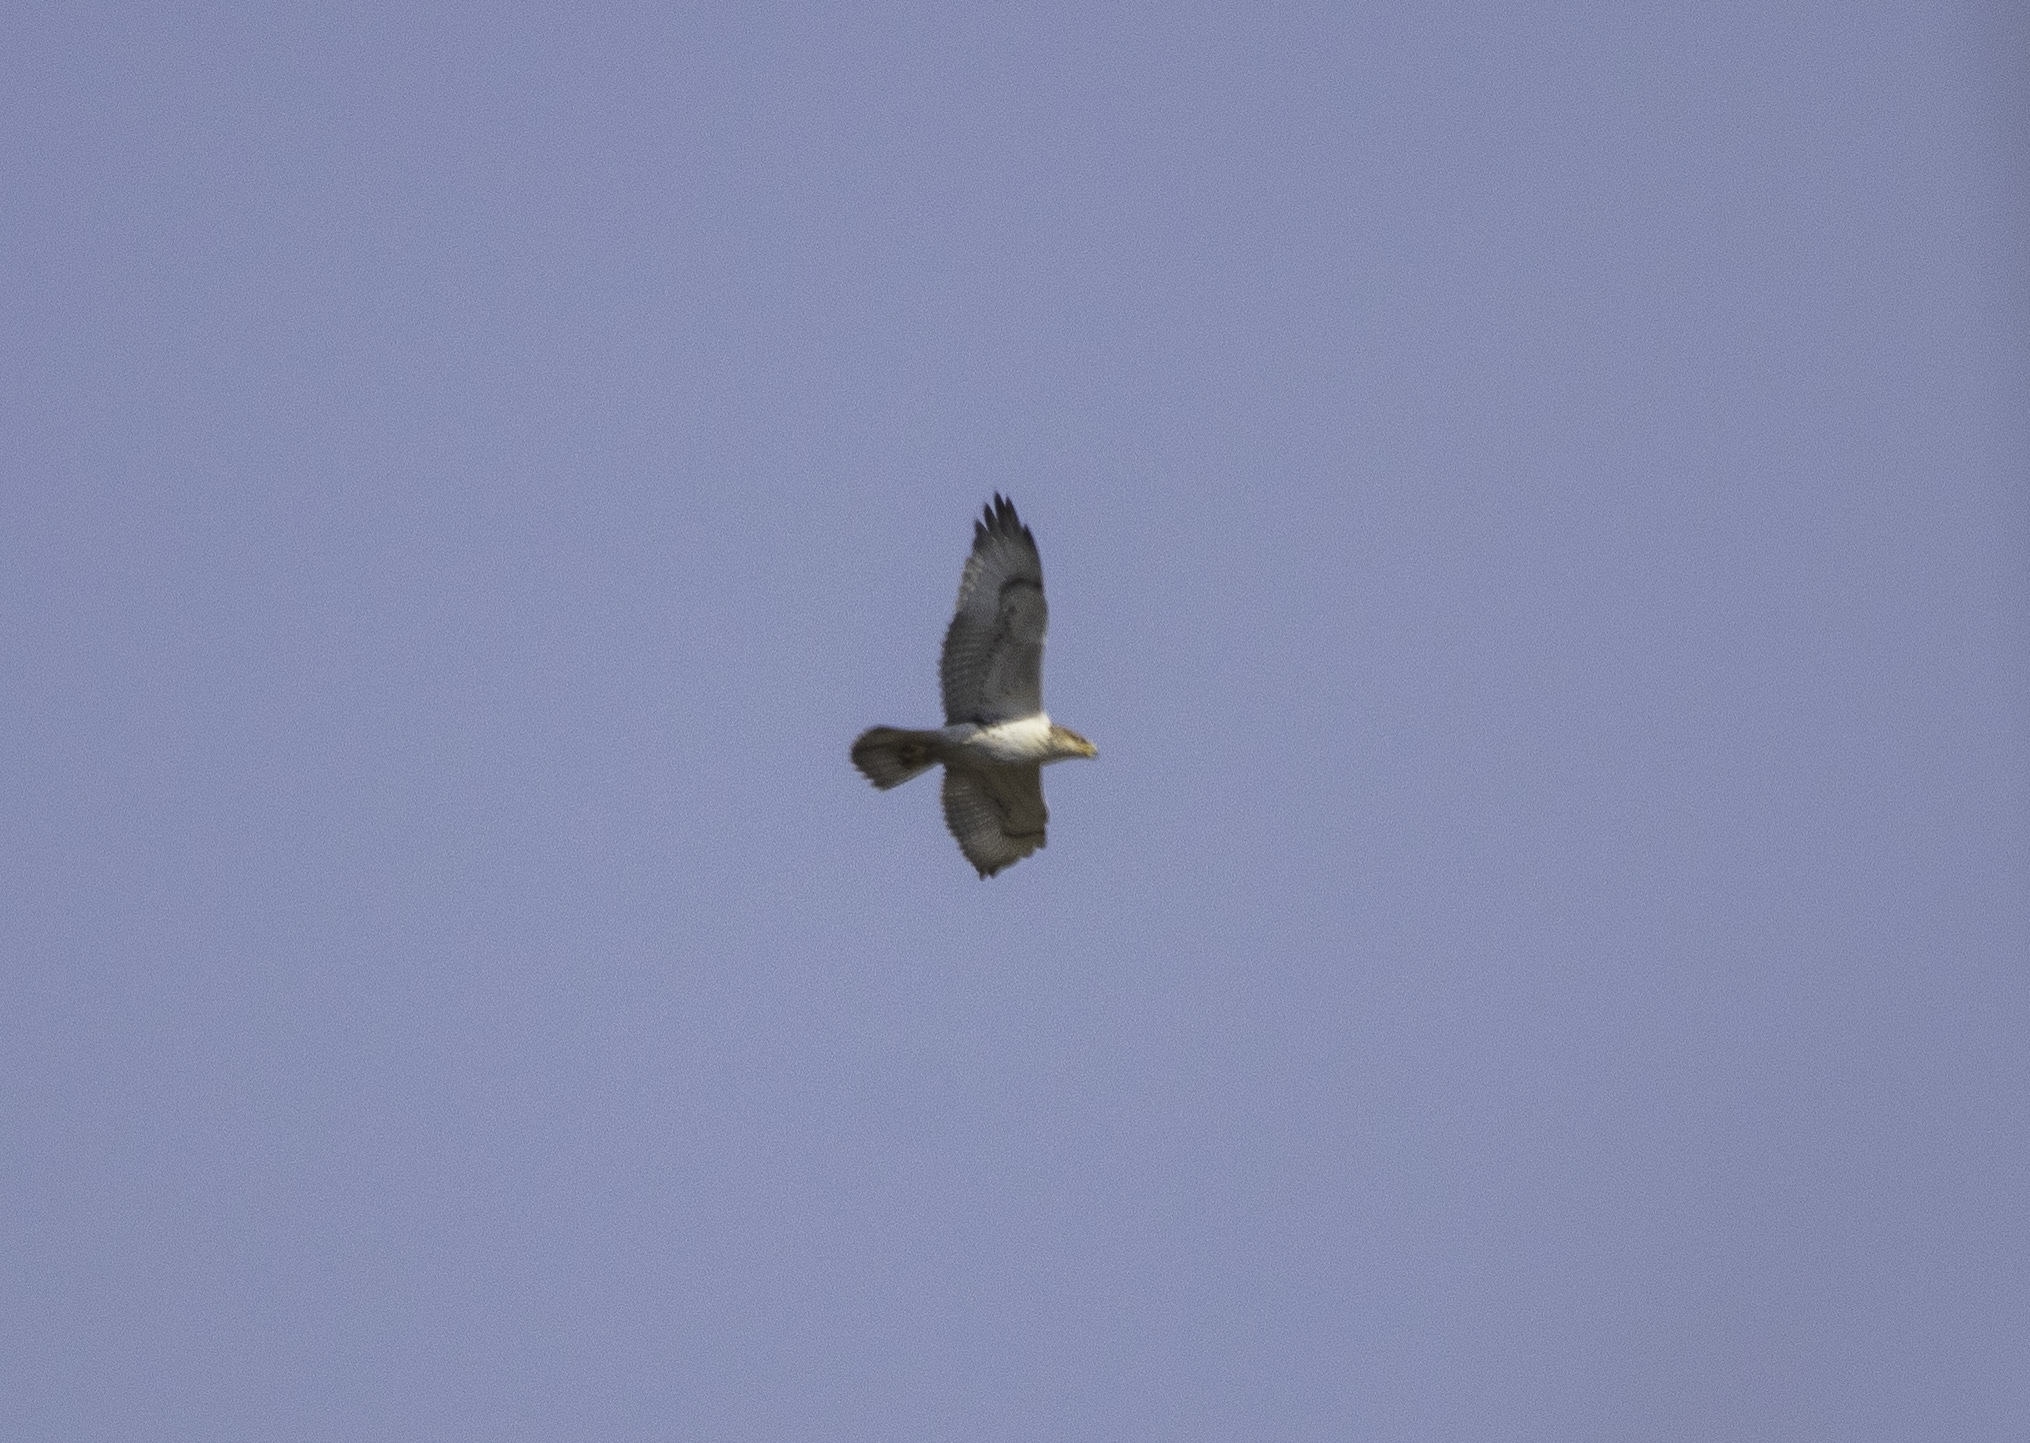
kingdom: Animalia
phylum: Chordata
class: Aves
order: Accipitriformes
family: Accipitridae
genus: Buteo
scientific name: Buteo regalis
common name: Ferruginous hawk
